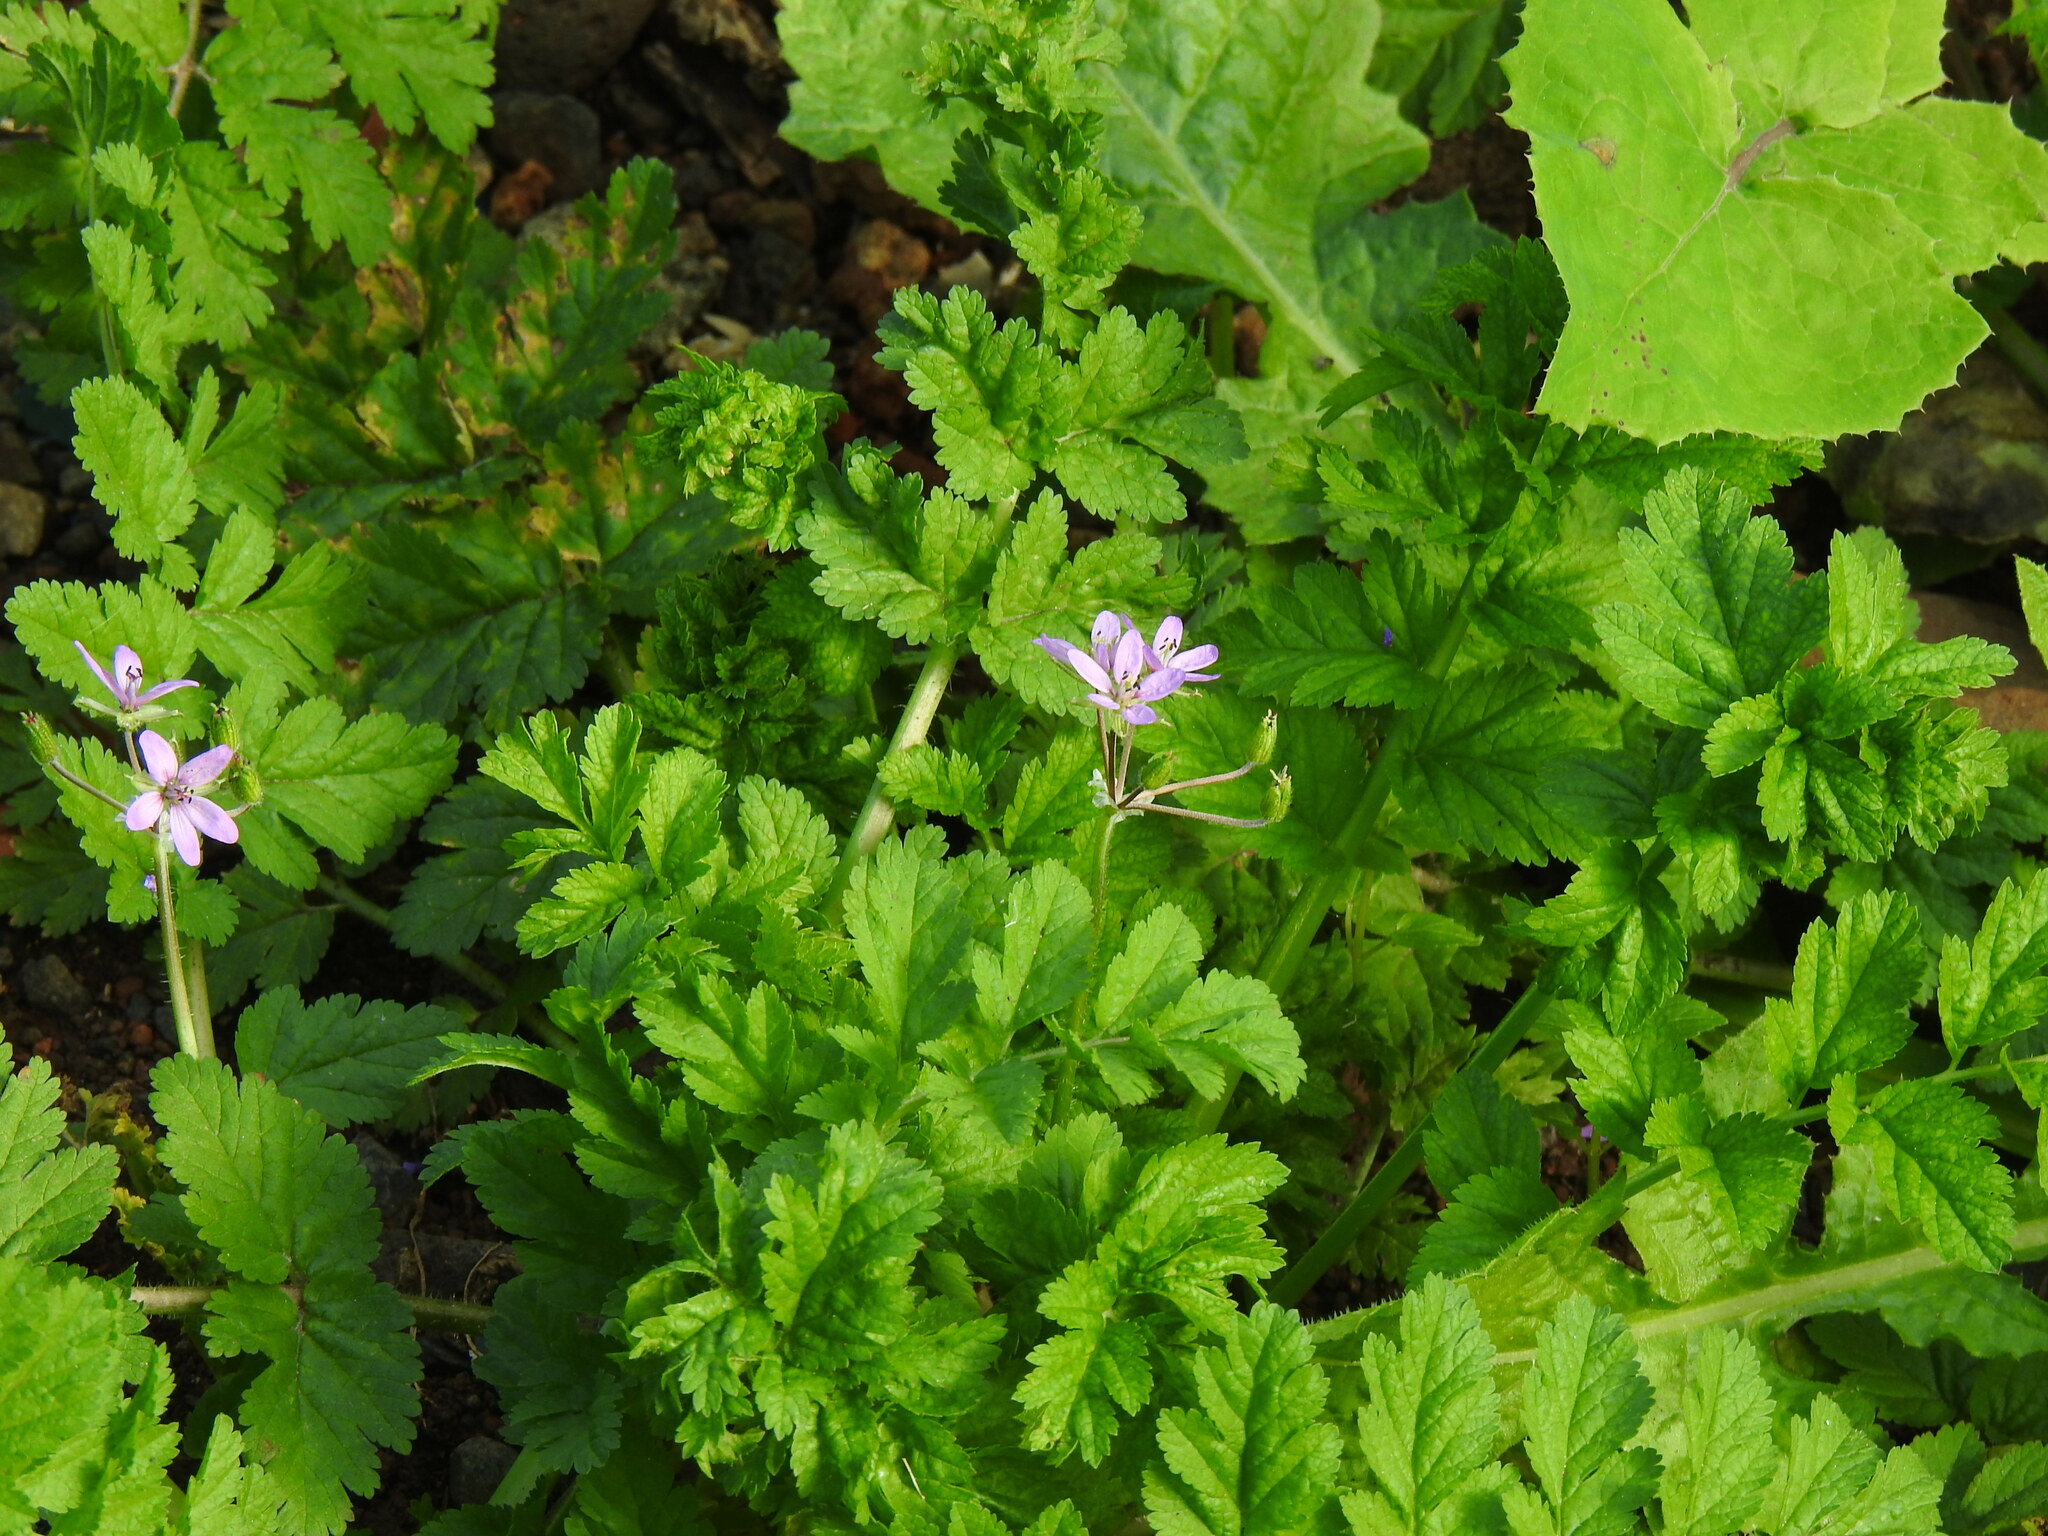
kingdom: Plantae
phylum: Tracheophyta
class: Magnoliopsida
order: Geraniales
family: Geraniaceae
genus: Erodium
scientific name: Erodium moschatum
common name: Musk stork's-bill
